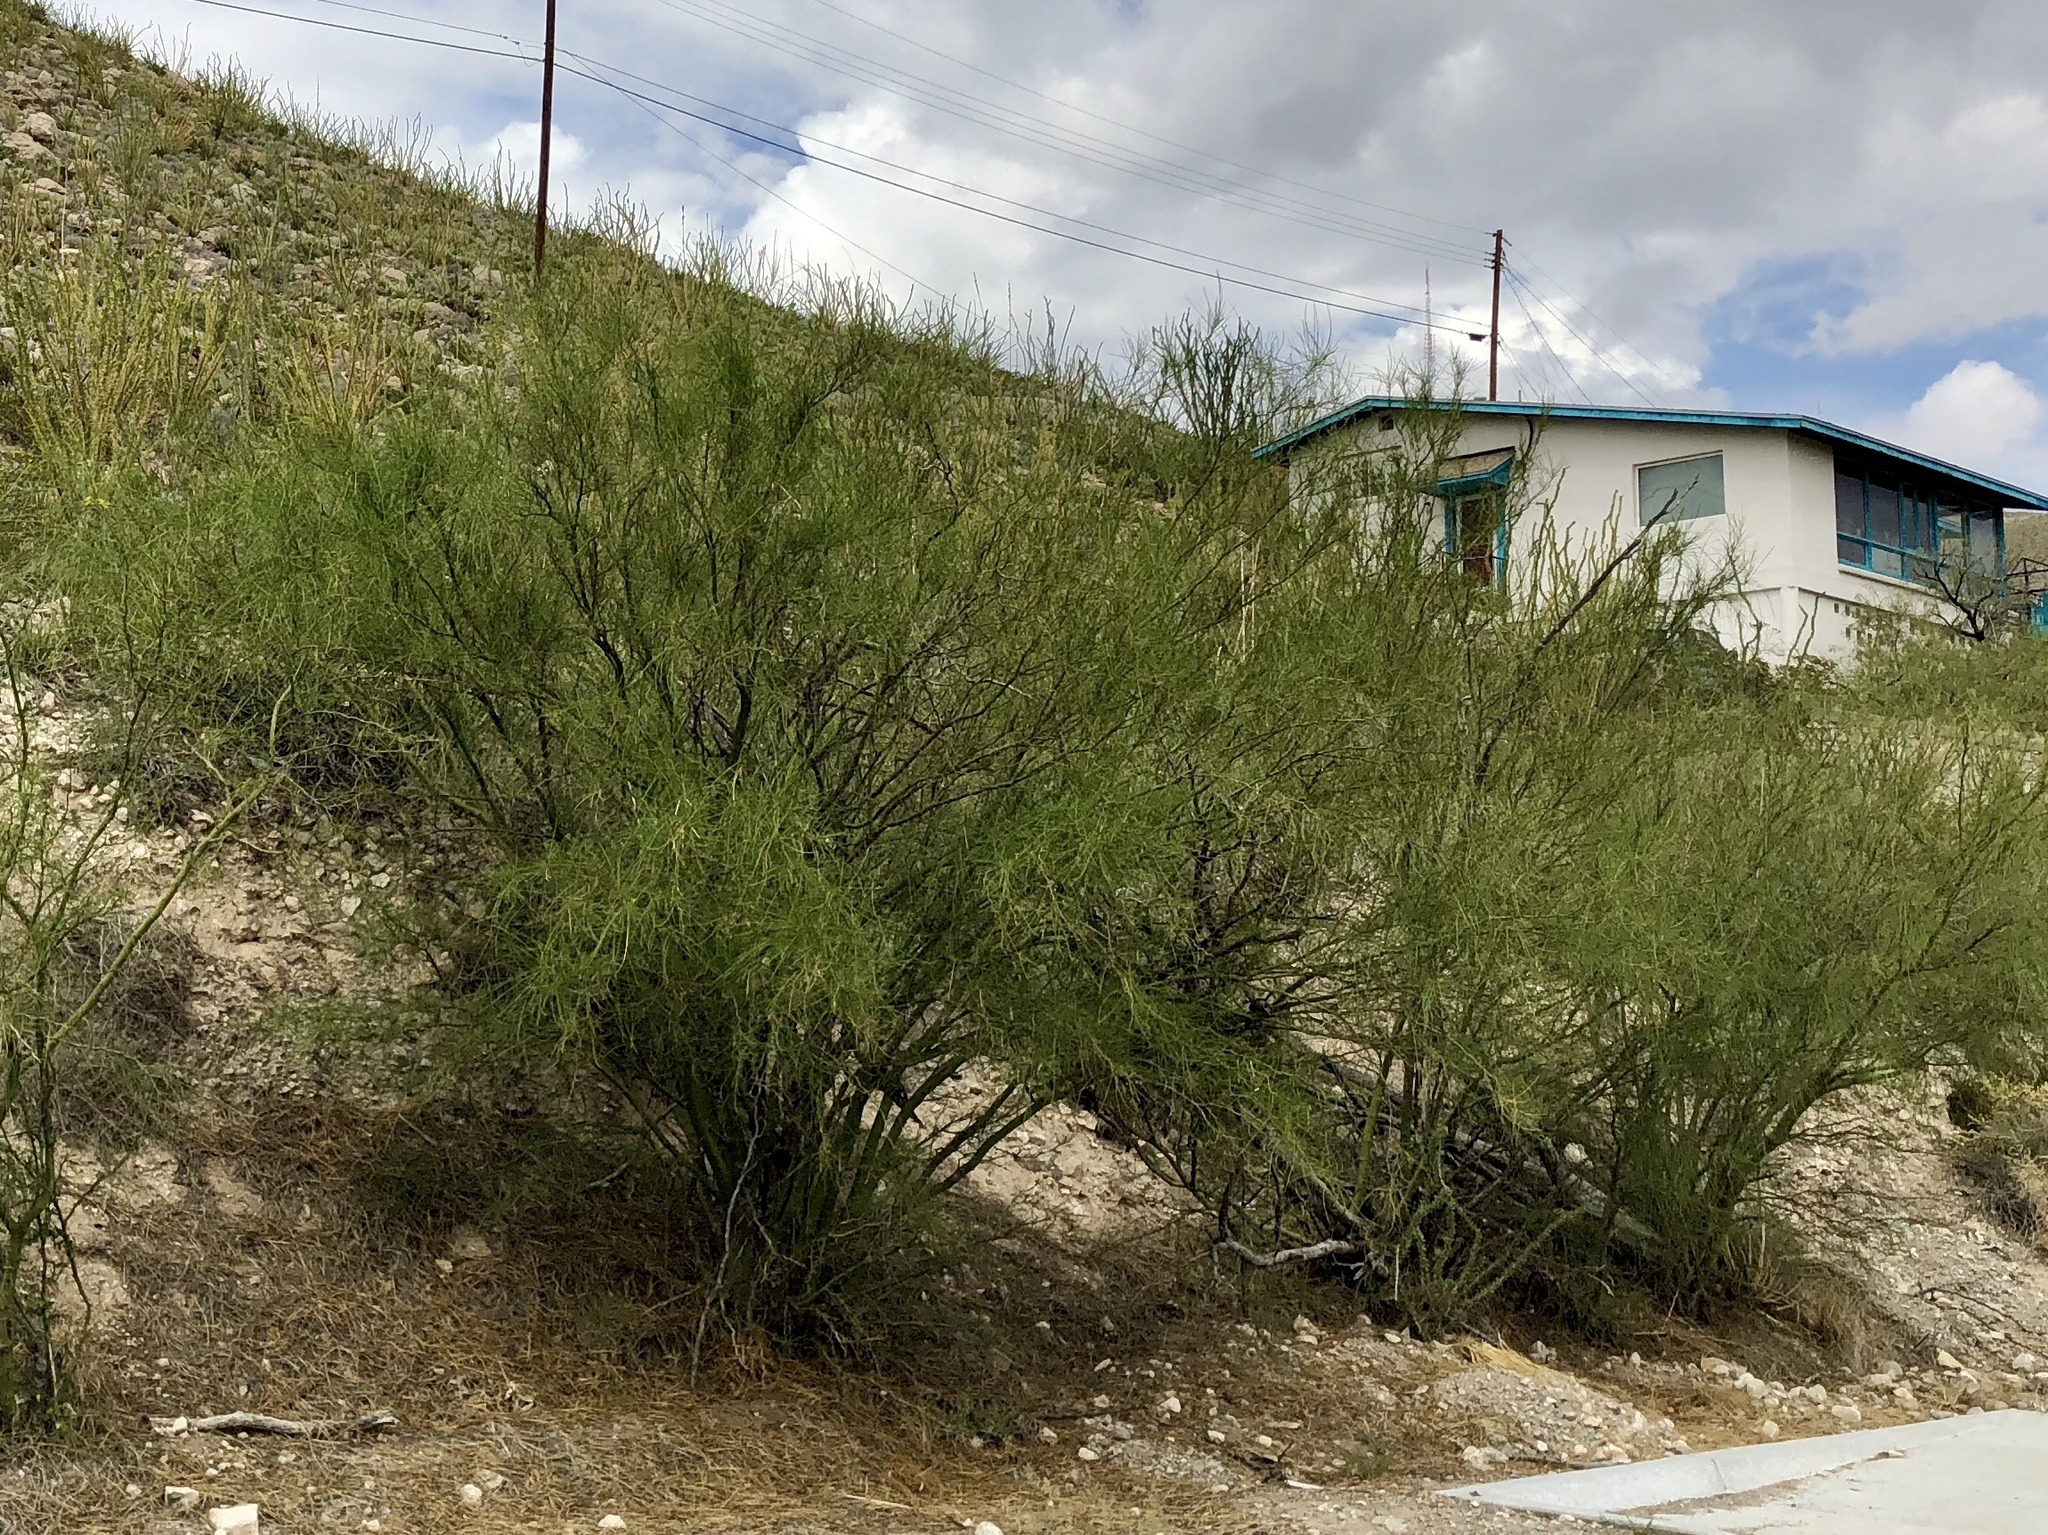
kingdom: Plantae
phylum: Tracheophyta
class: Magnoliopsida
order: Fabales
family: Fabaceae
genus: Parkinsonia
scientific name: Parkinsonia aculeata
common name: Jerusalem thorn
